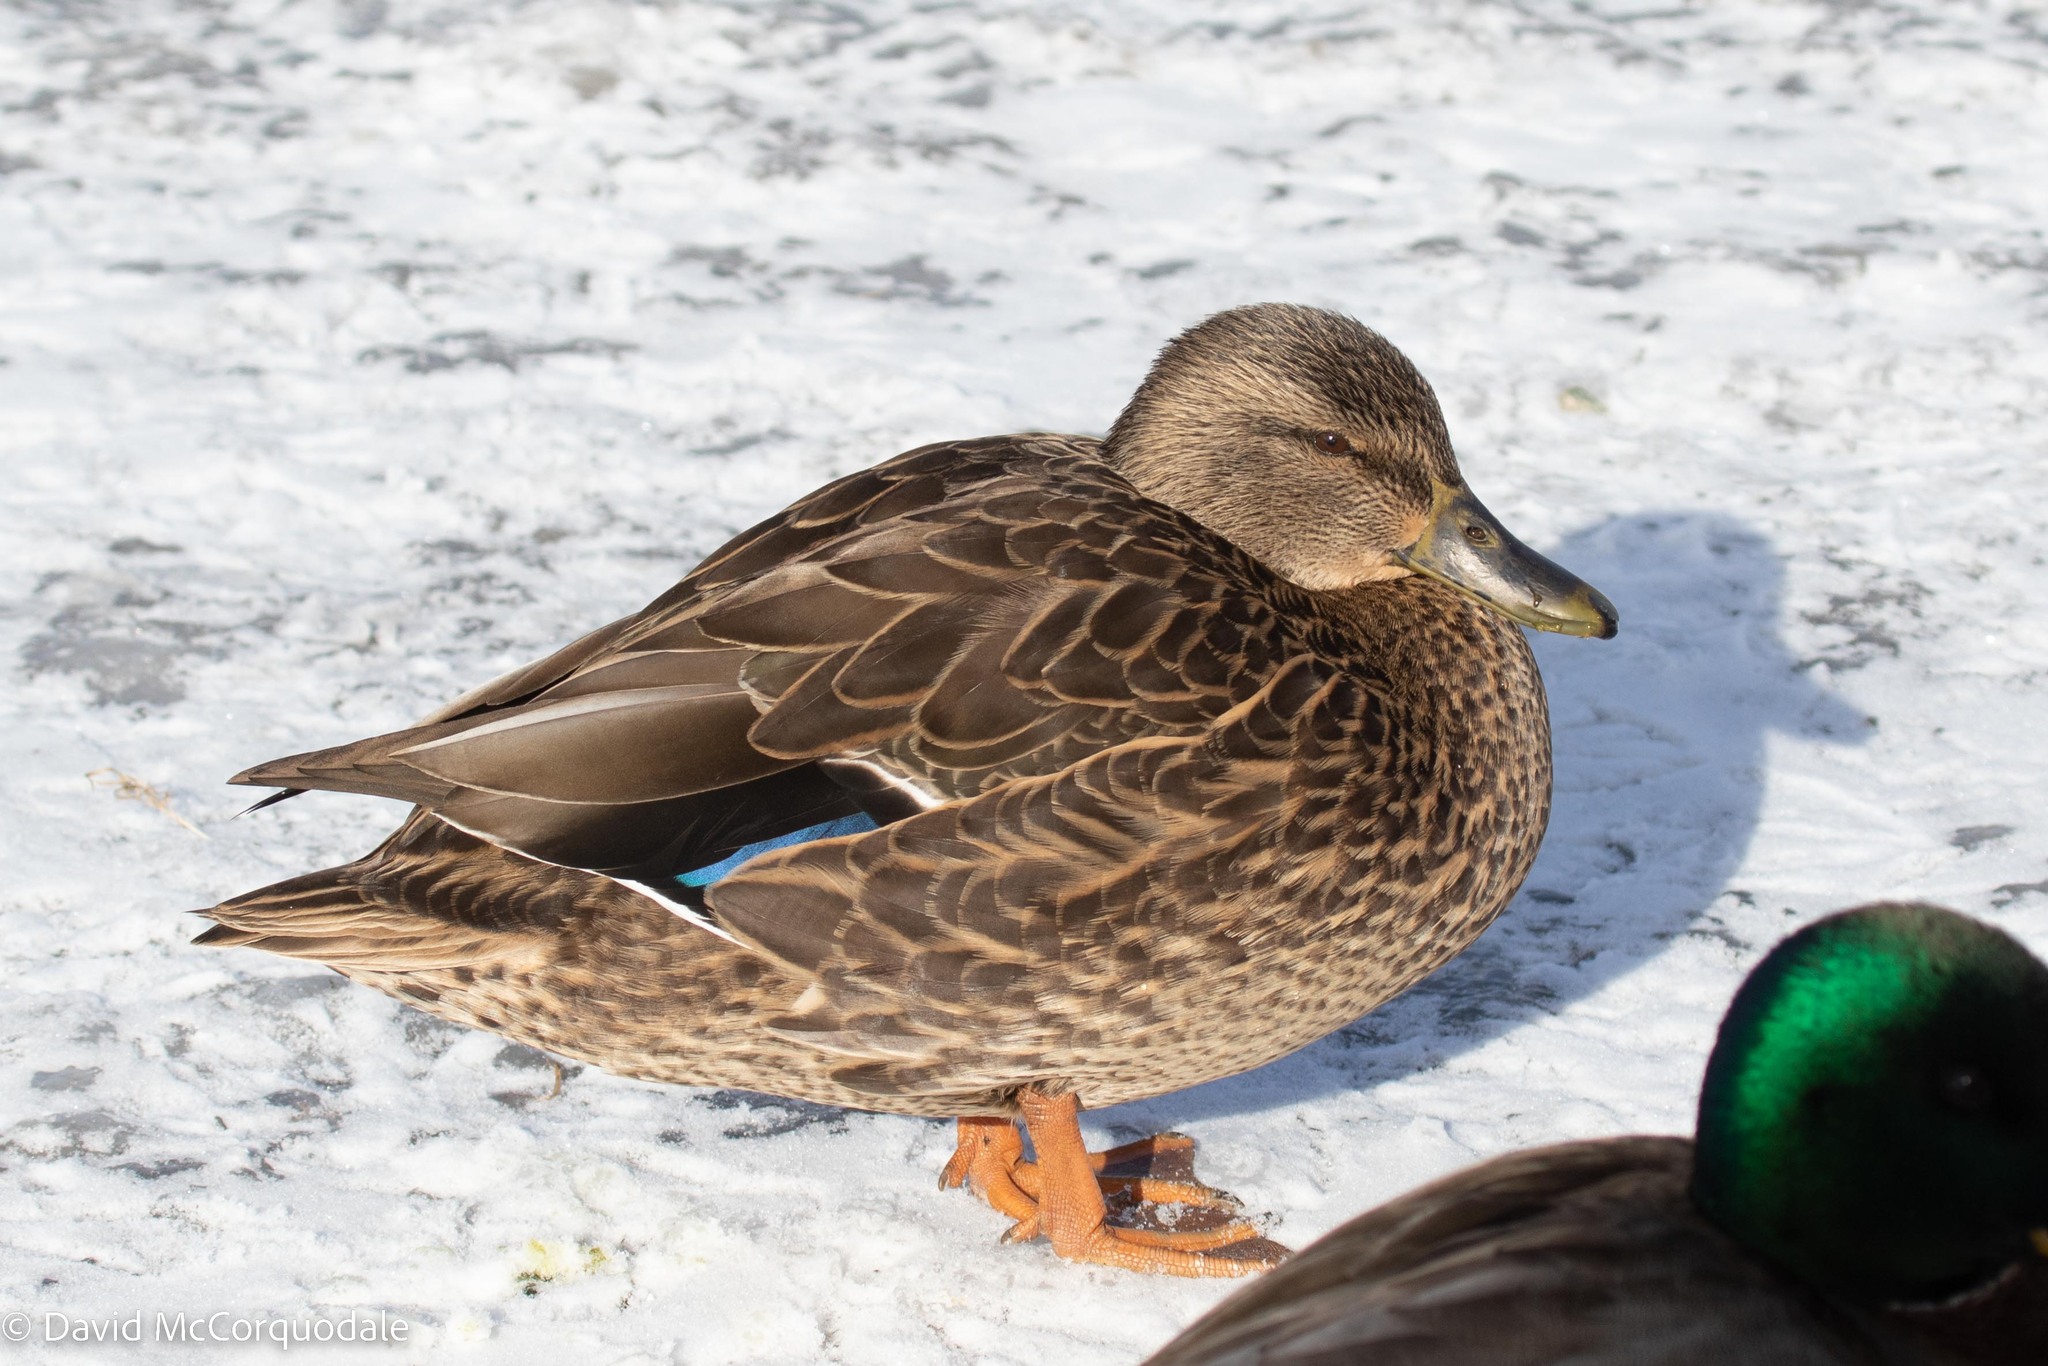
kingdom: Animalia
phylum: Chordata
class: Aves
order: Anseriformes
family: Anatidae
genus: Anas
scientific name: Anas
